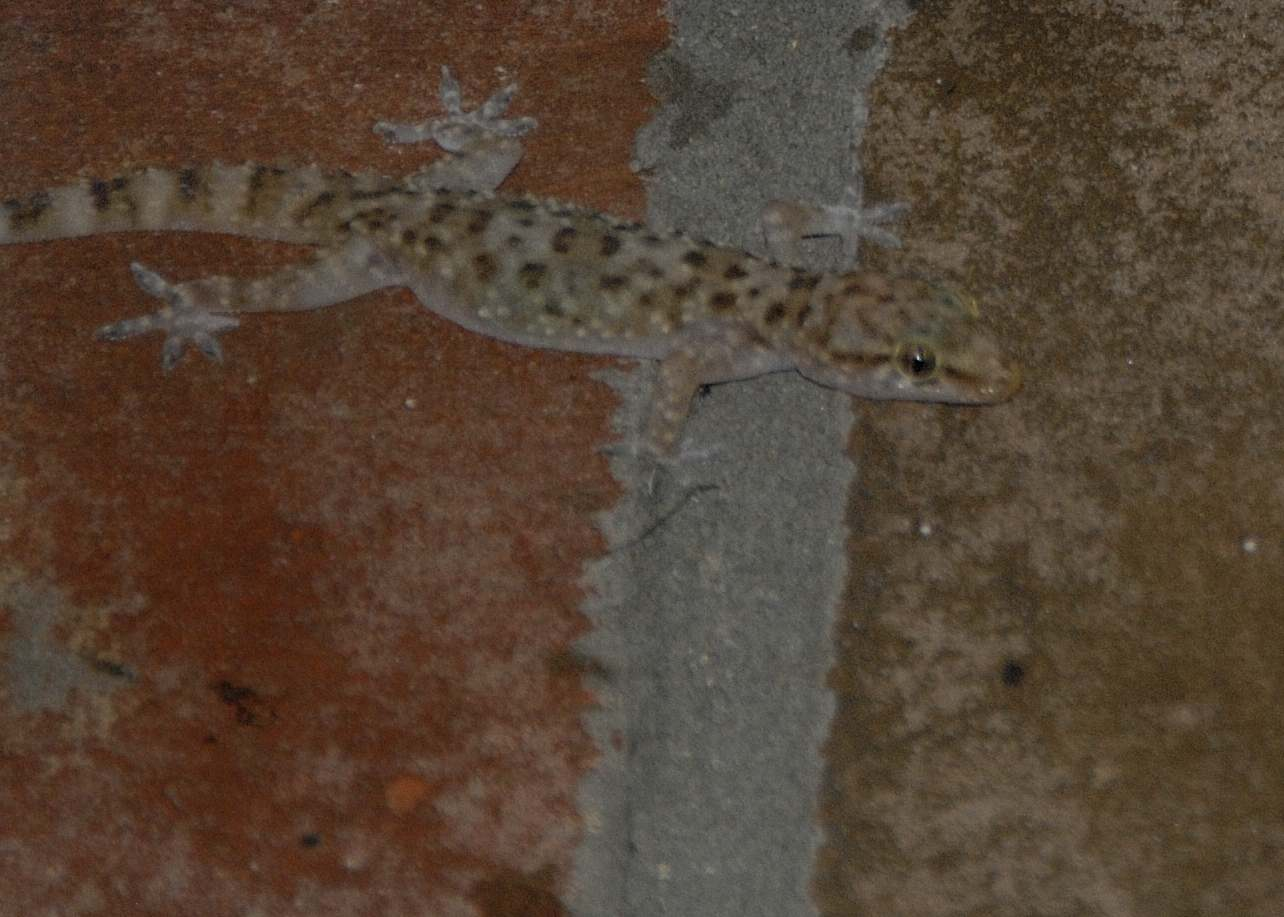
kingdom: Animalia
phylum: Chordata
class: Squamata
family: Gekkonidae
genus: Hemidactylus
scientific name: Hemidactylus turcicus
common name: Turkish gecko
